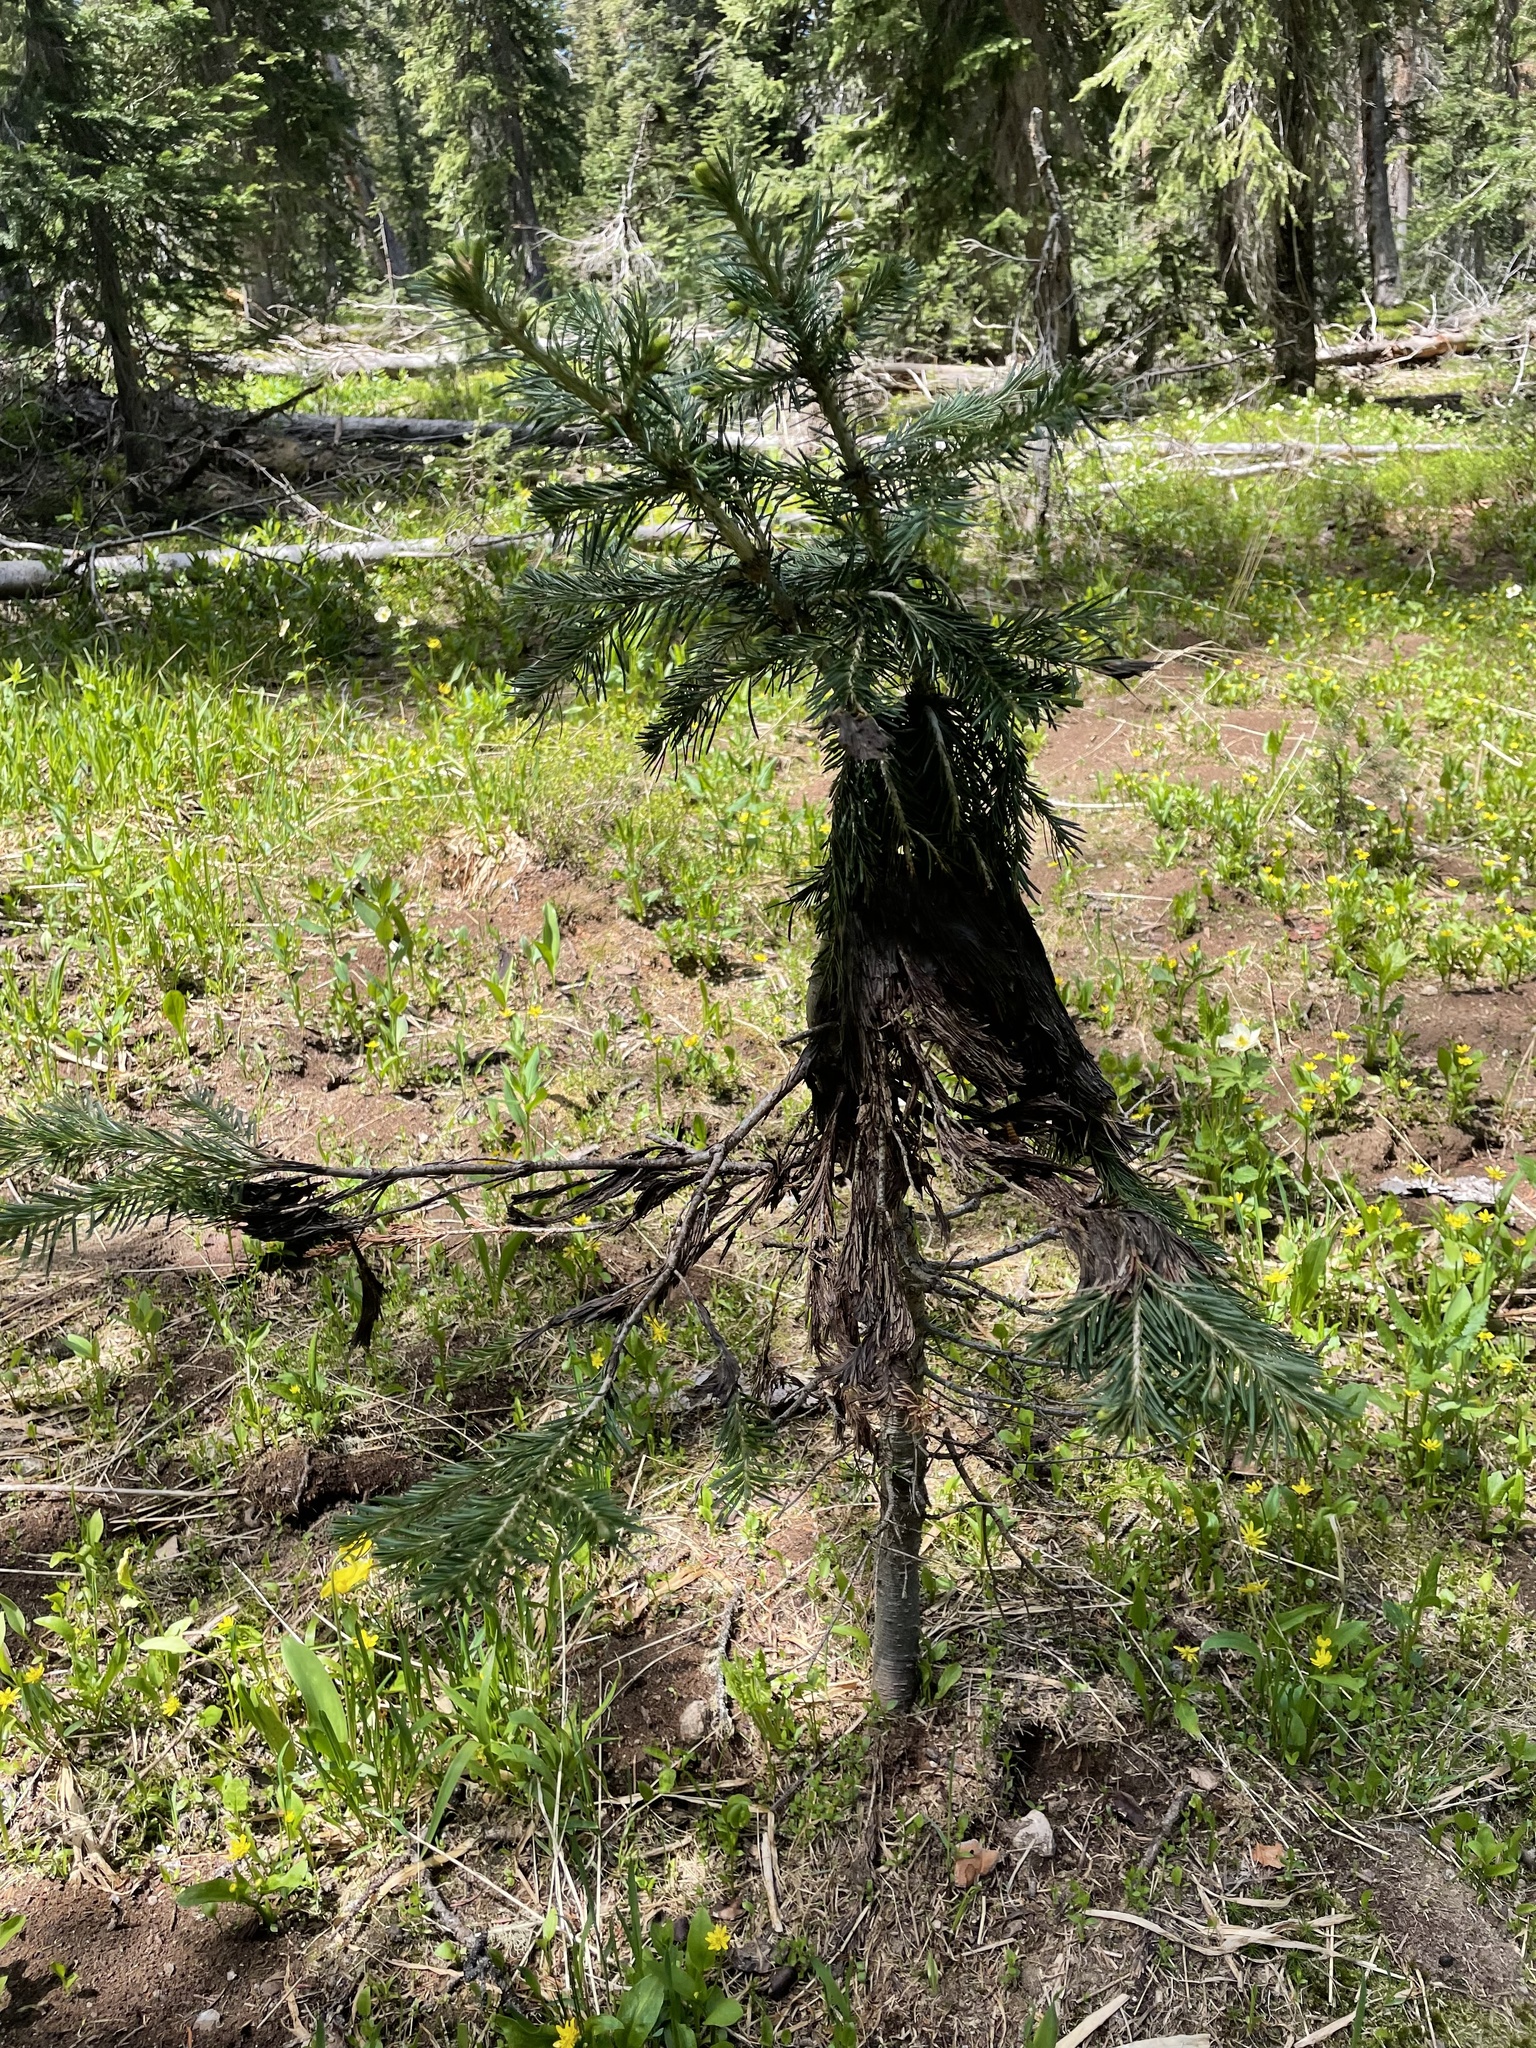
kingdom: Fungi
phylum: Ascomycota
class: Dothideomycetes
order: Pleosporales
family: Melanommataceae
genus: Herpotrichia
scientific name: Herpotrichia pinetorum
